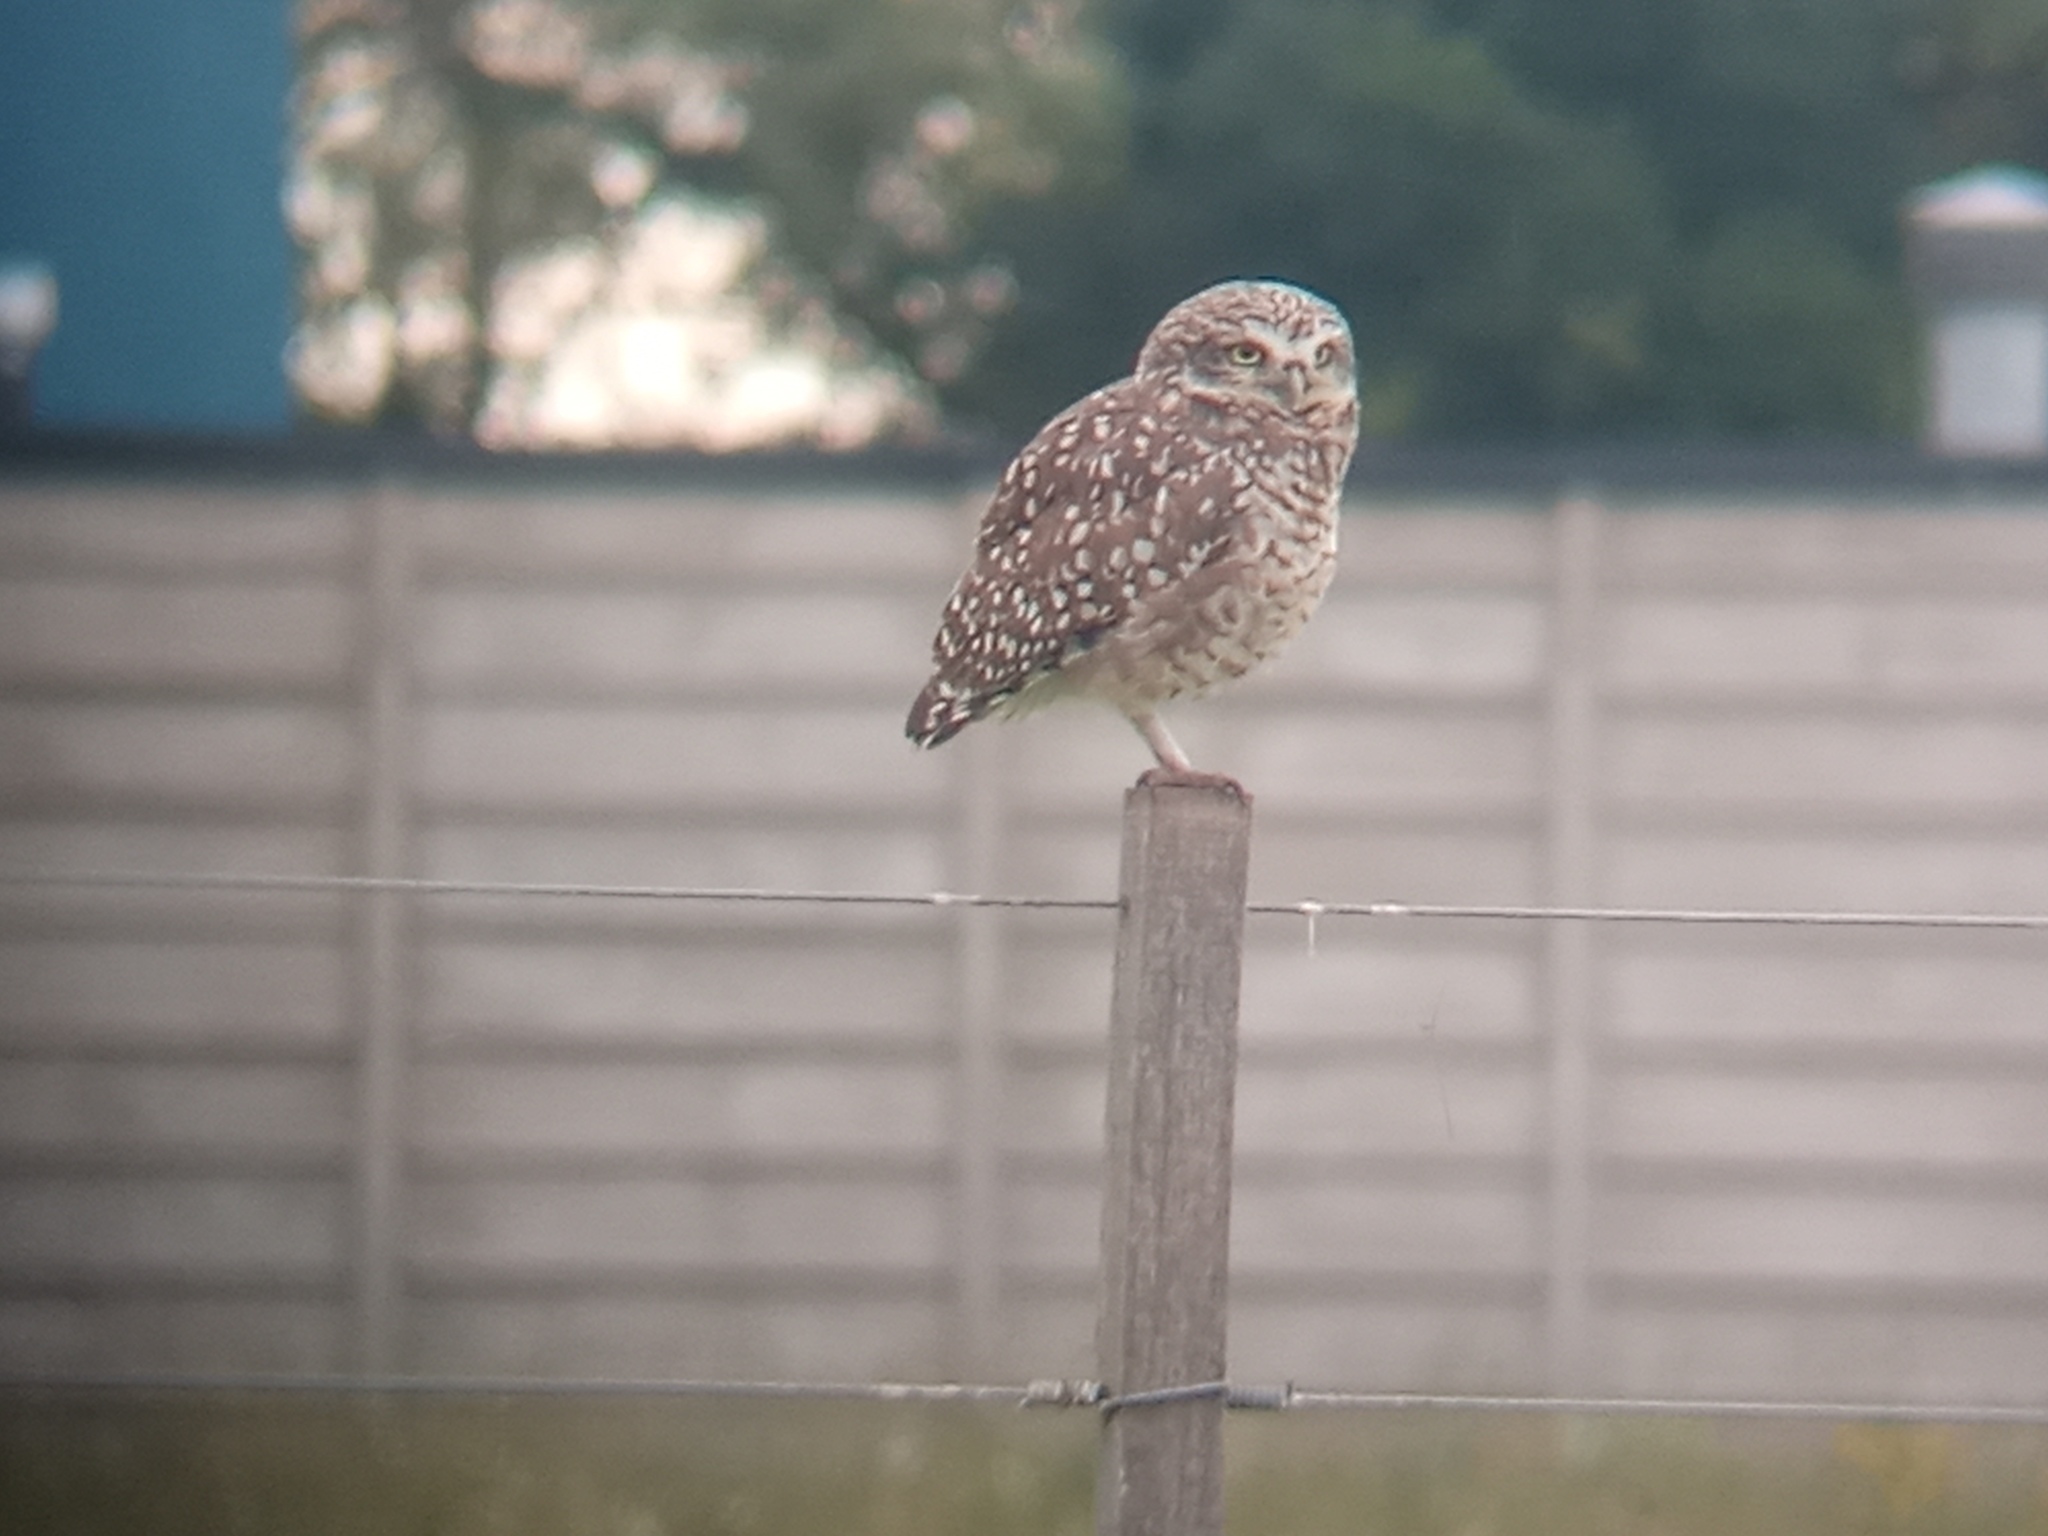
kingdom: Animalia
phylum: Chordata
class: Aves
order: Strigiformes
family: Strigidae
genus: Athene
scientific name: Athene cunicularia
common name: Burrowing owl
